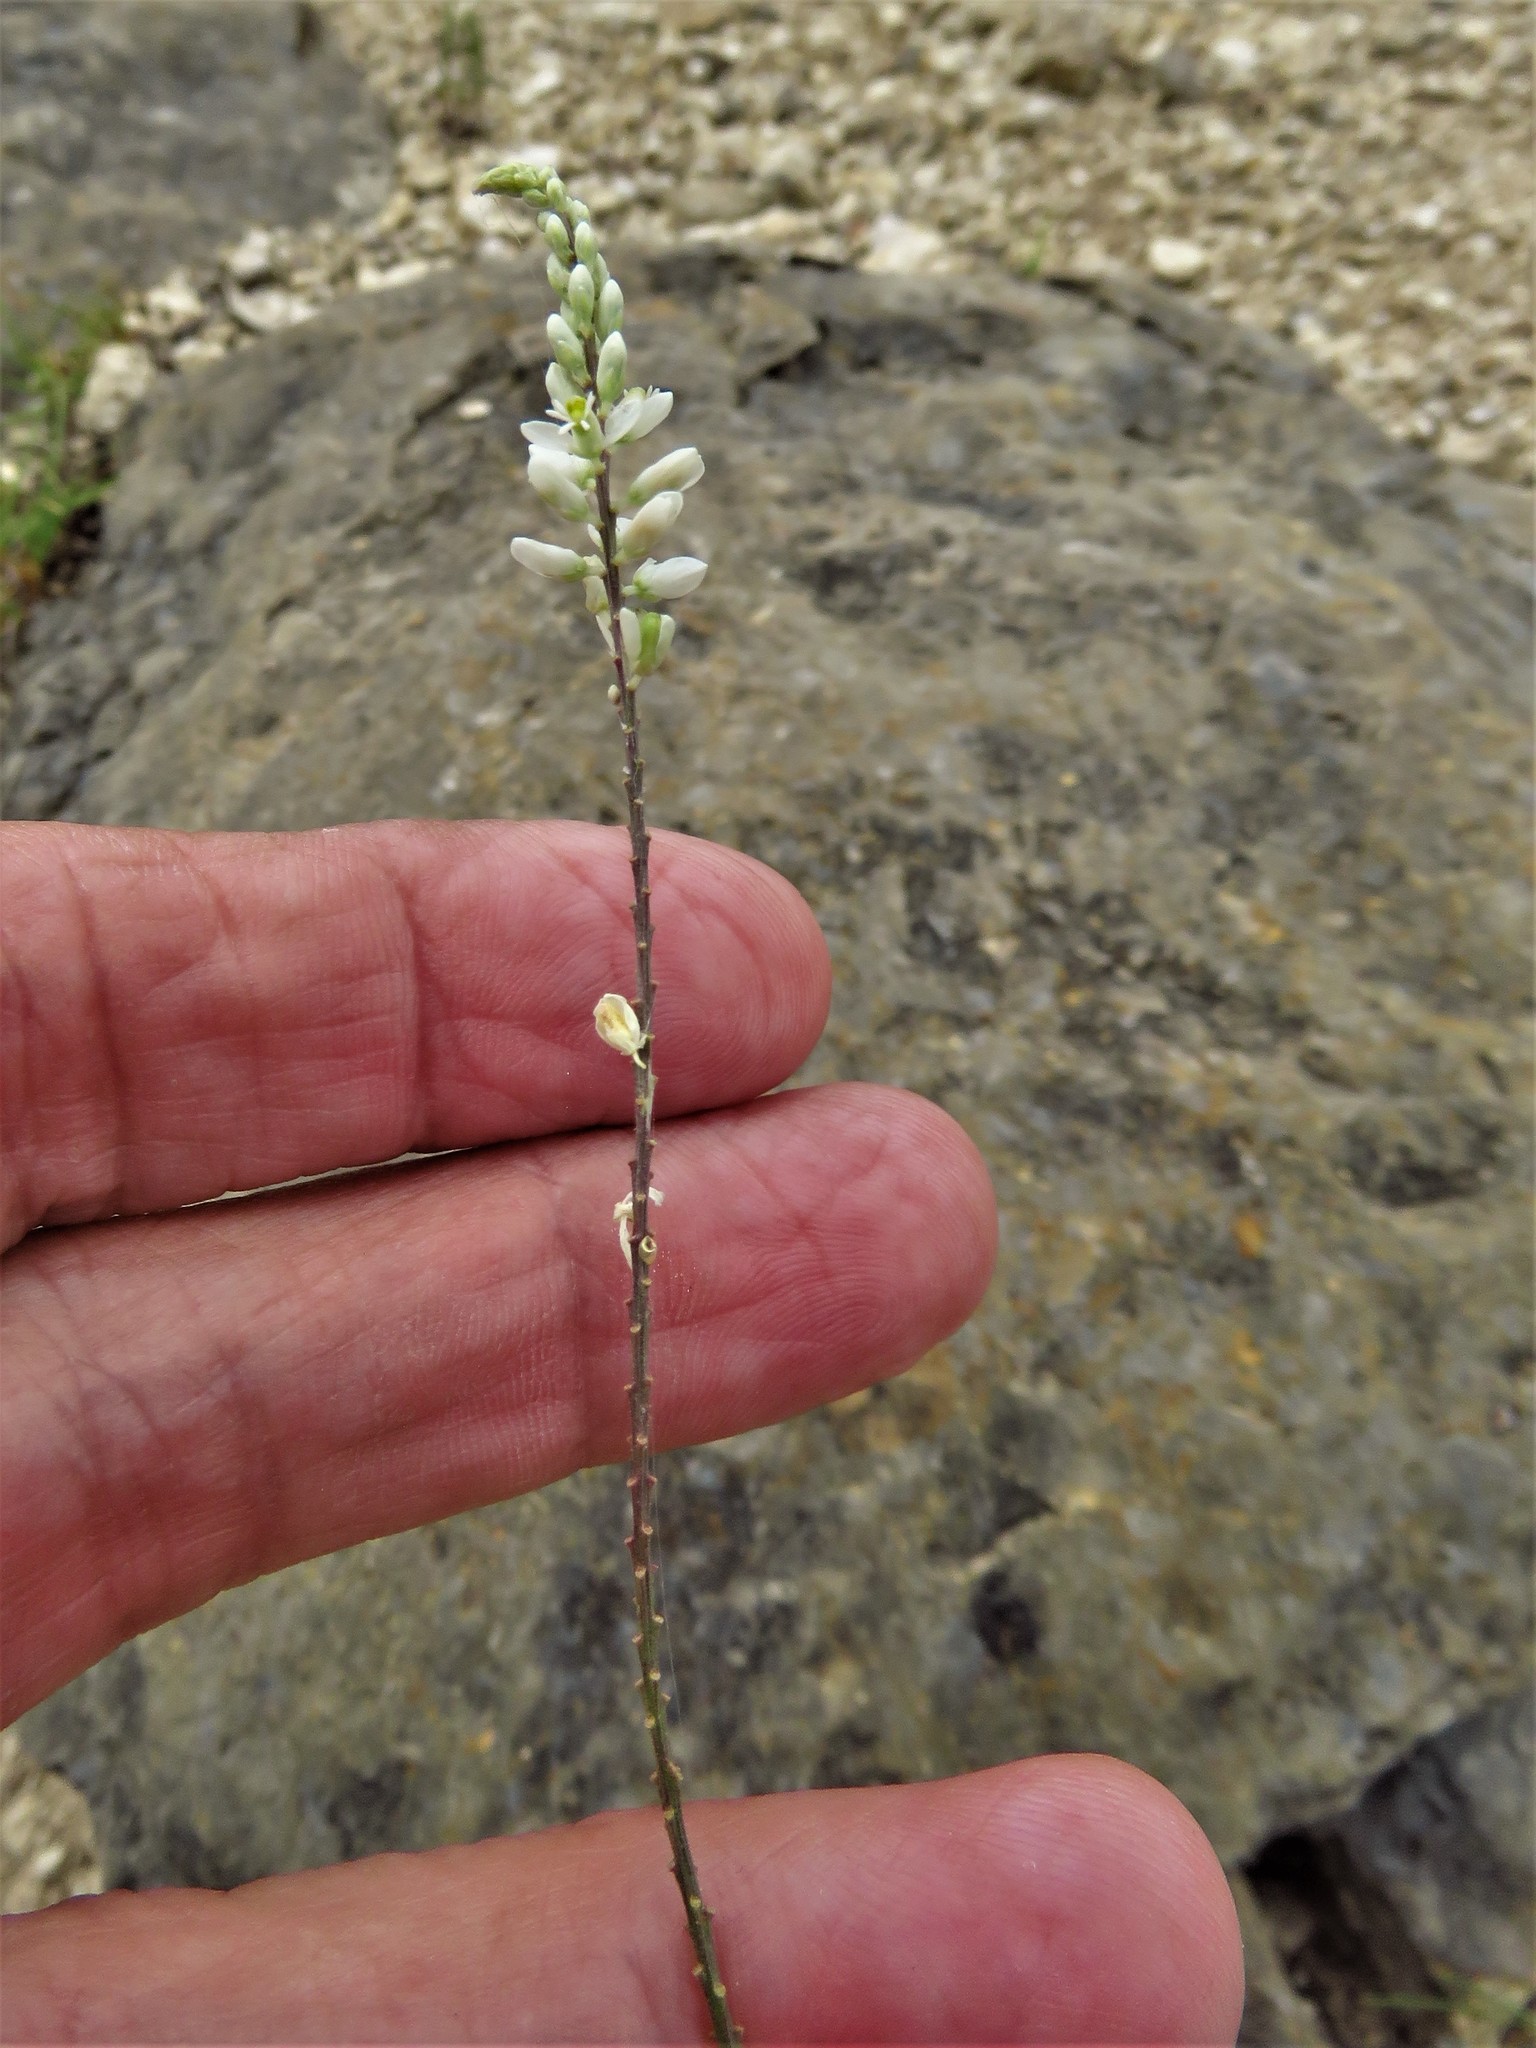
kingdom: Plantae
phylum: Tracheophyta
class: Magnoliopsida
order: Fabales
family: Polygalaceae
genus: Polygala
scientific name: Polygala alba
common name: White milkwort
